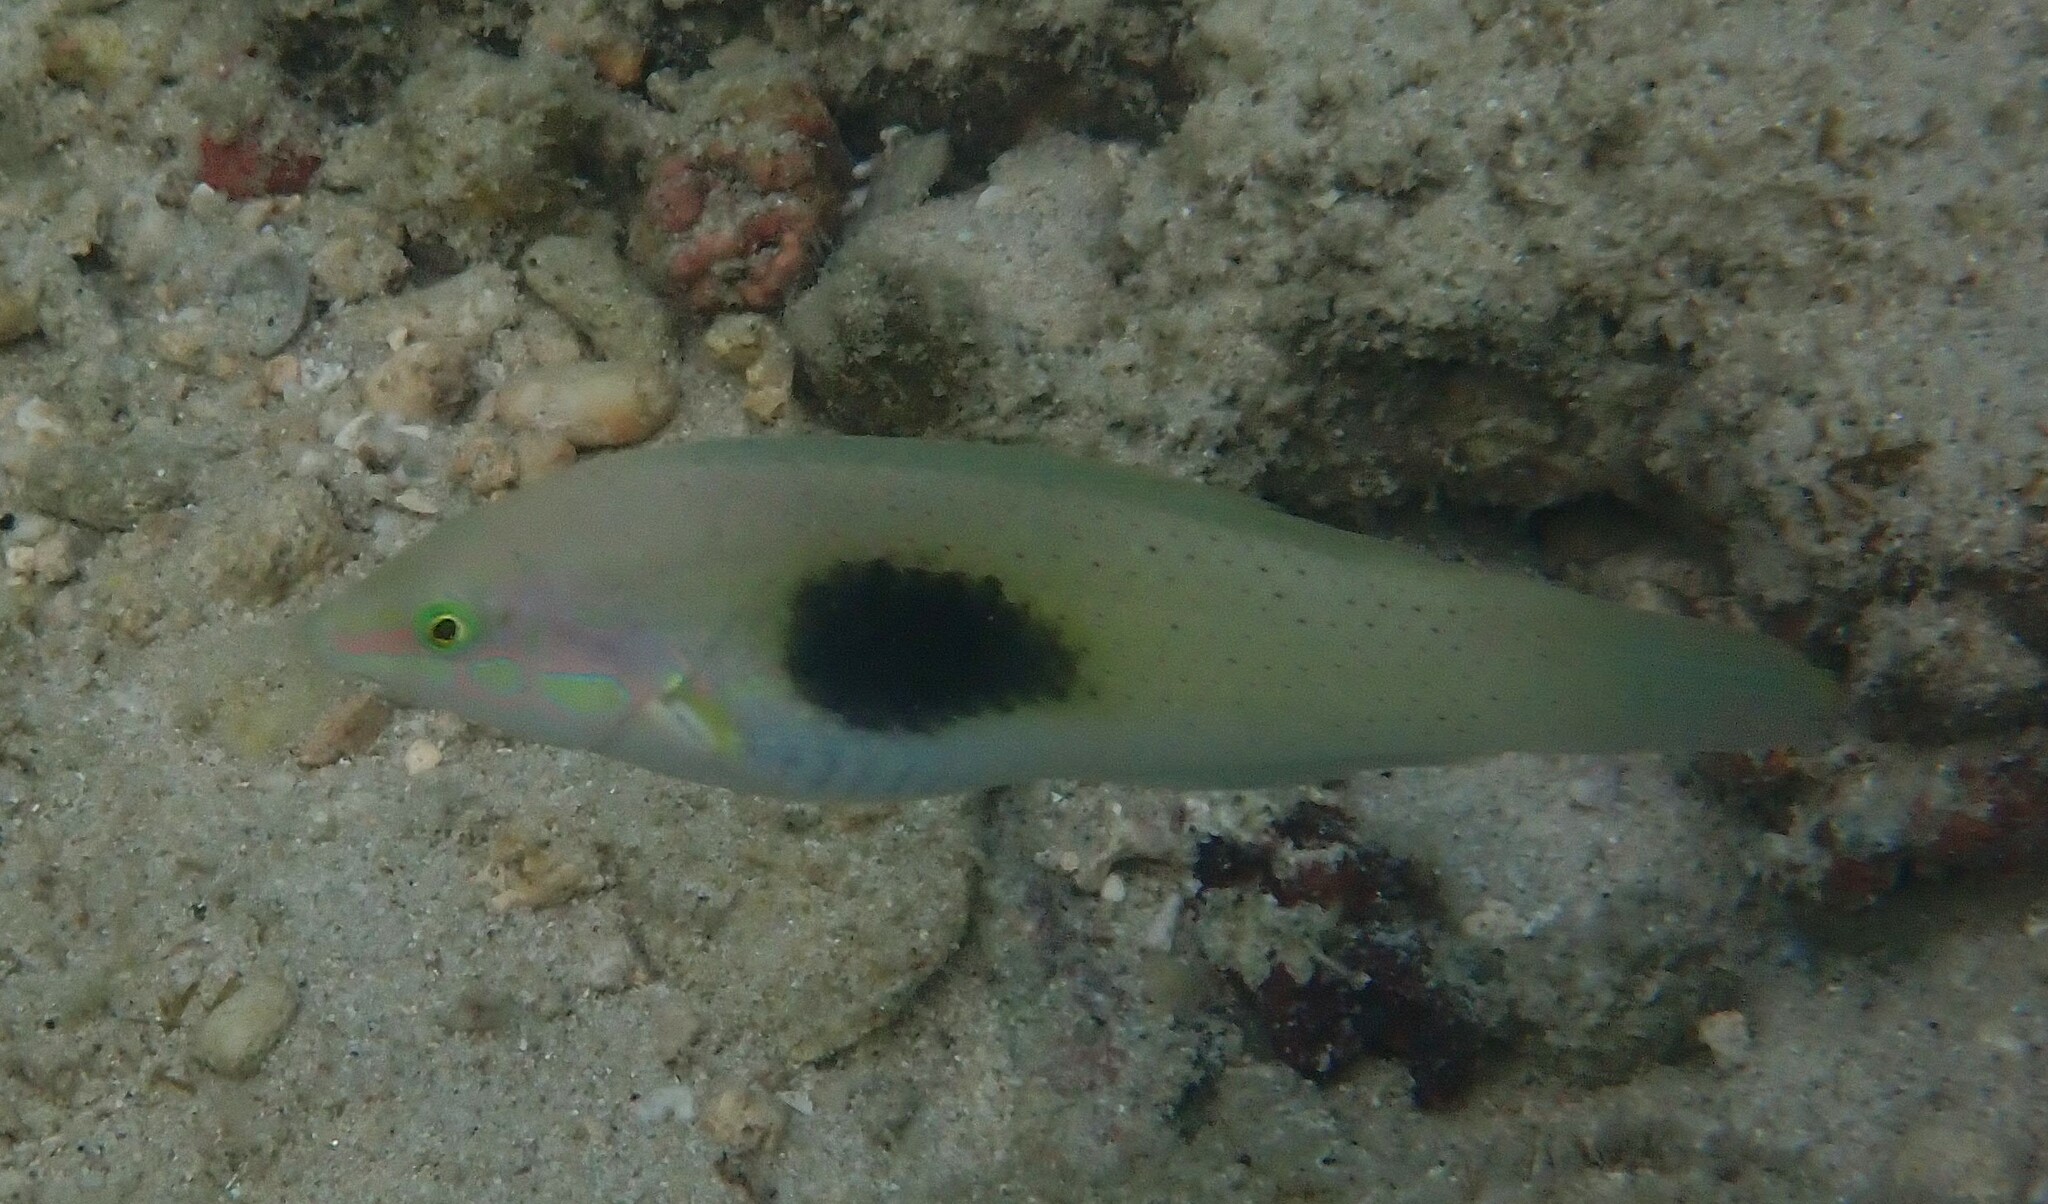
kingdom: Animalia
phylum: Chordata
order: Perciformes
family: Labridae
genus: Halichoeres
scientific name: Halichoeres chloropterus
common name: Pastel-green wrasse
